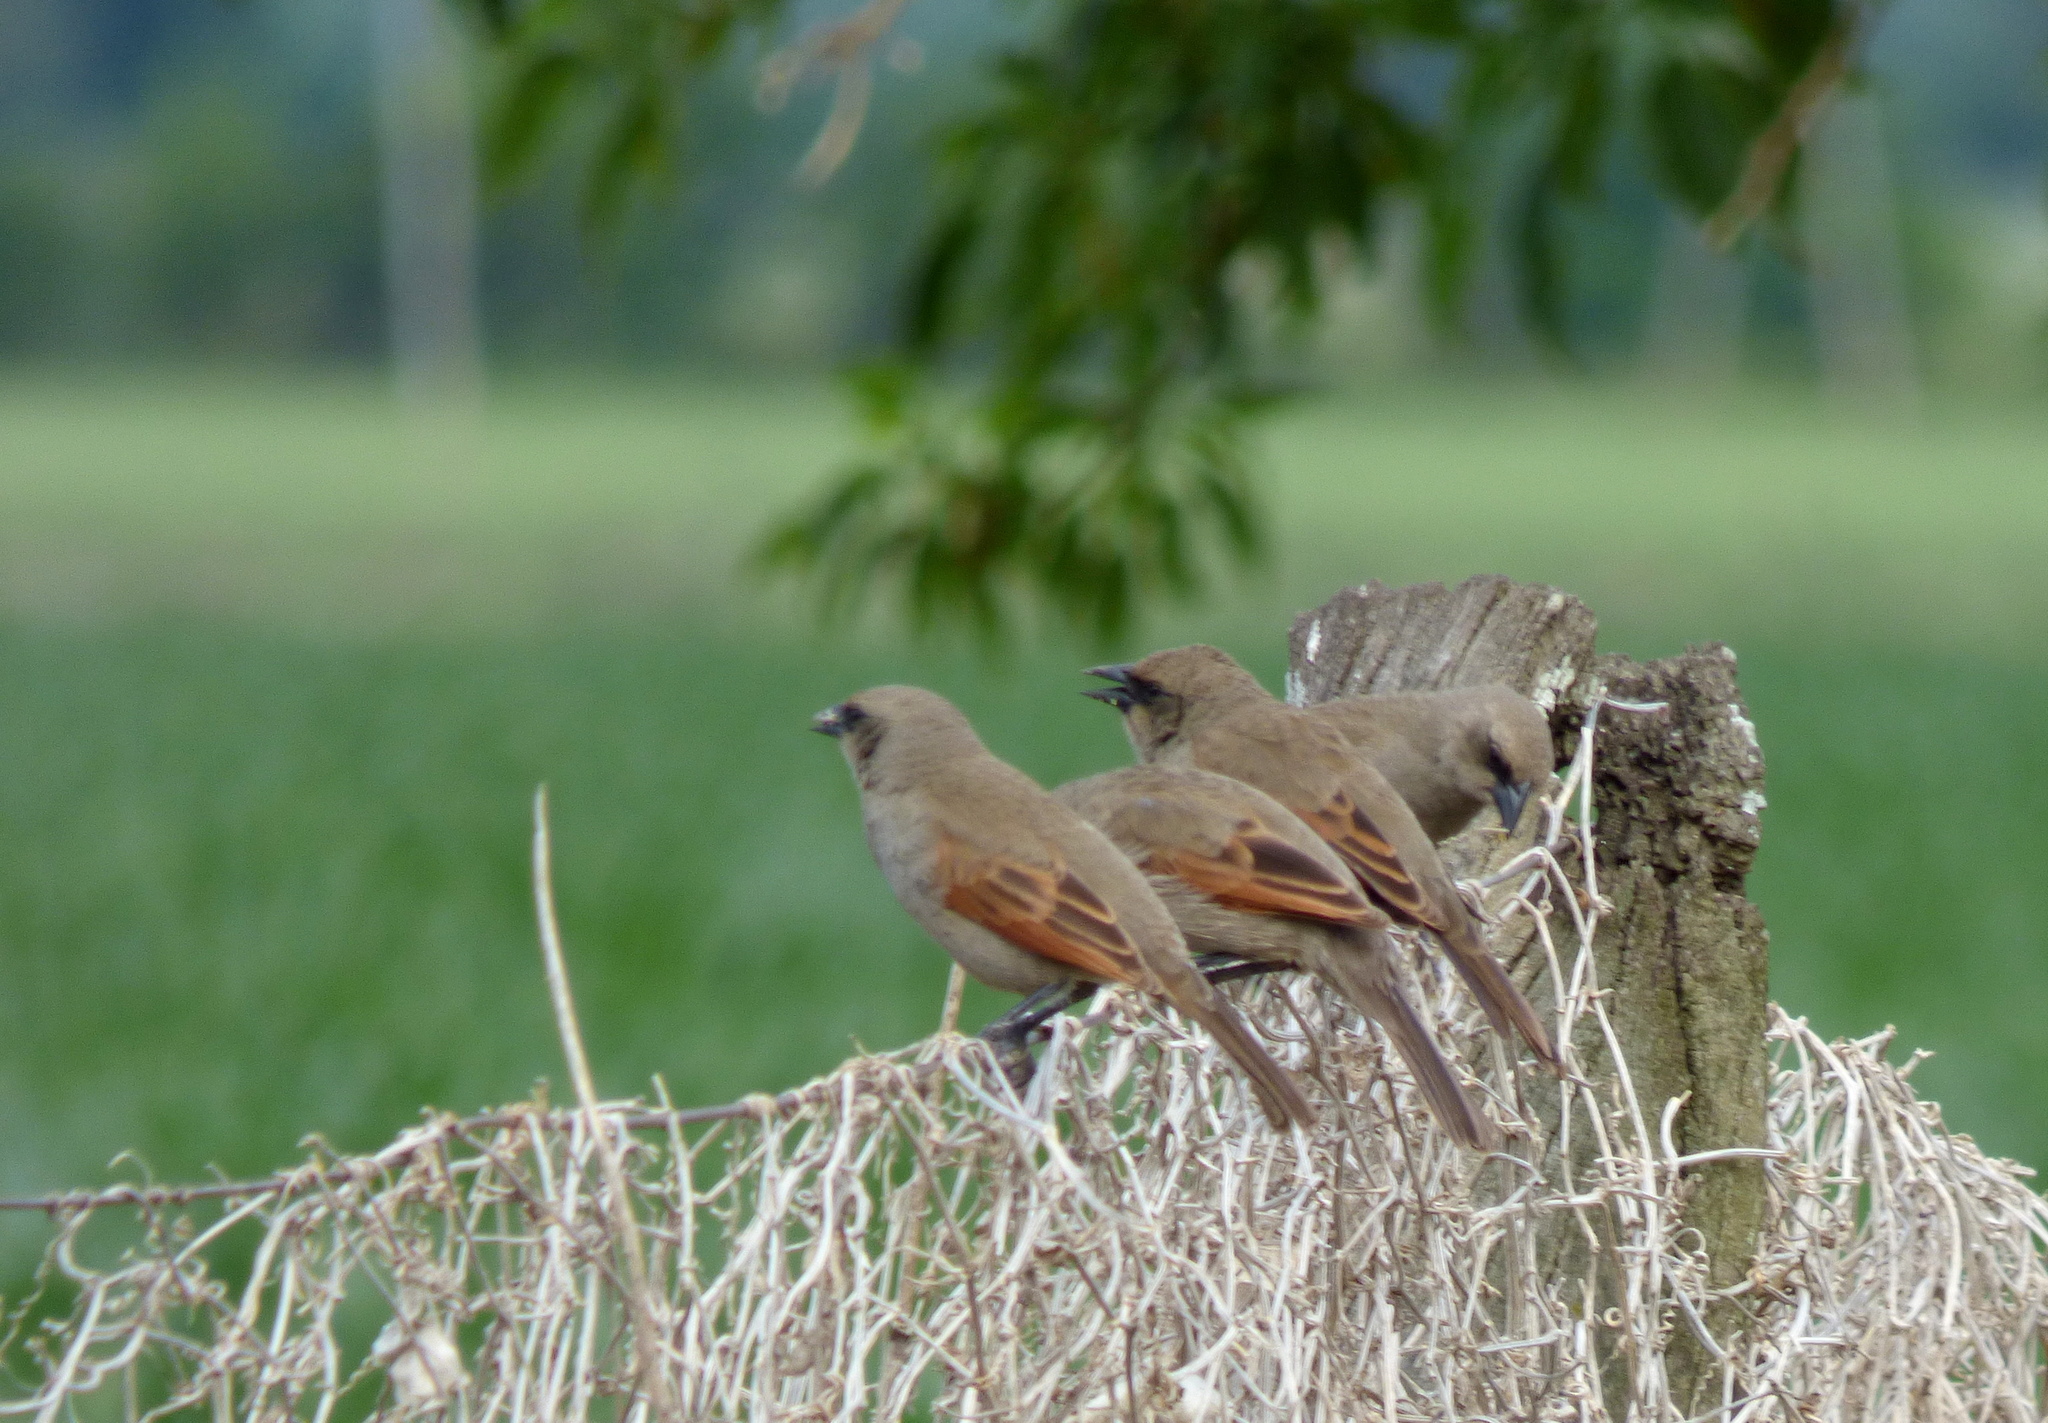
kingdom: Animalia
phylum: Chordata
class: Aves
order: Passeriformes
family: Icteridae
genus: Agelaioides
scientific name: Agelaioides badius
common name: Baywing
